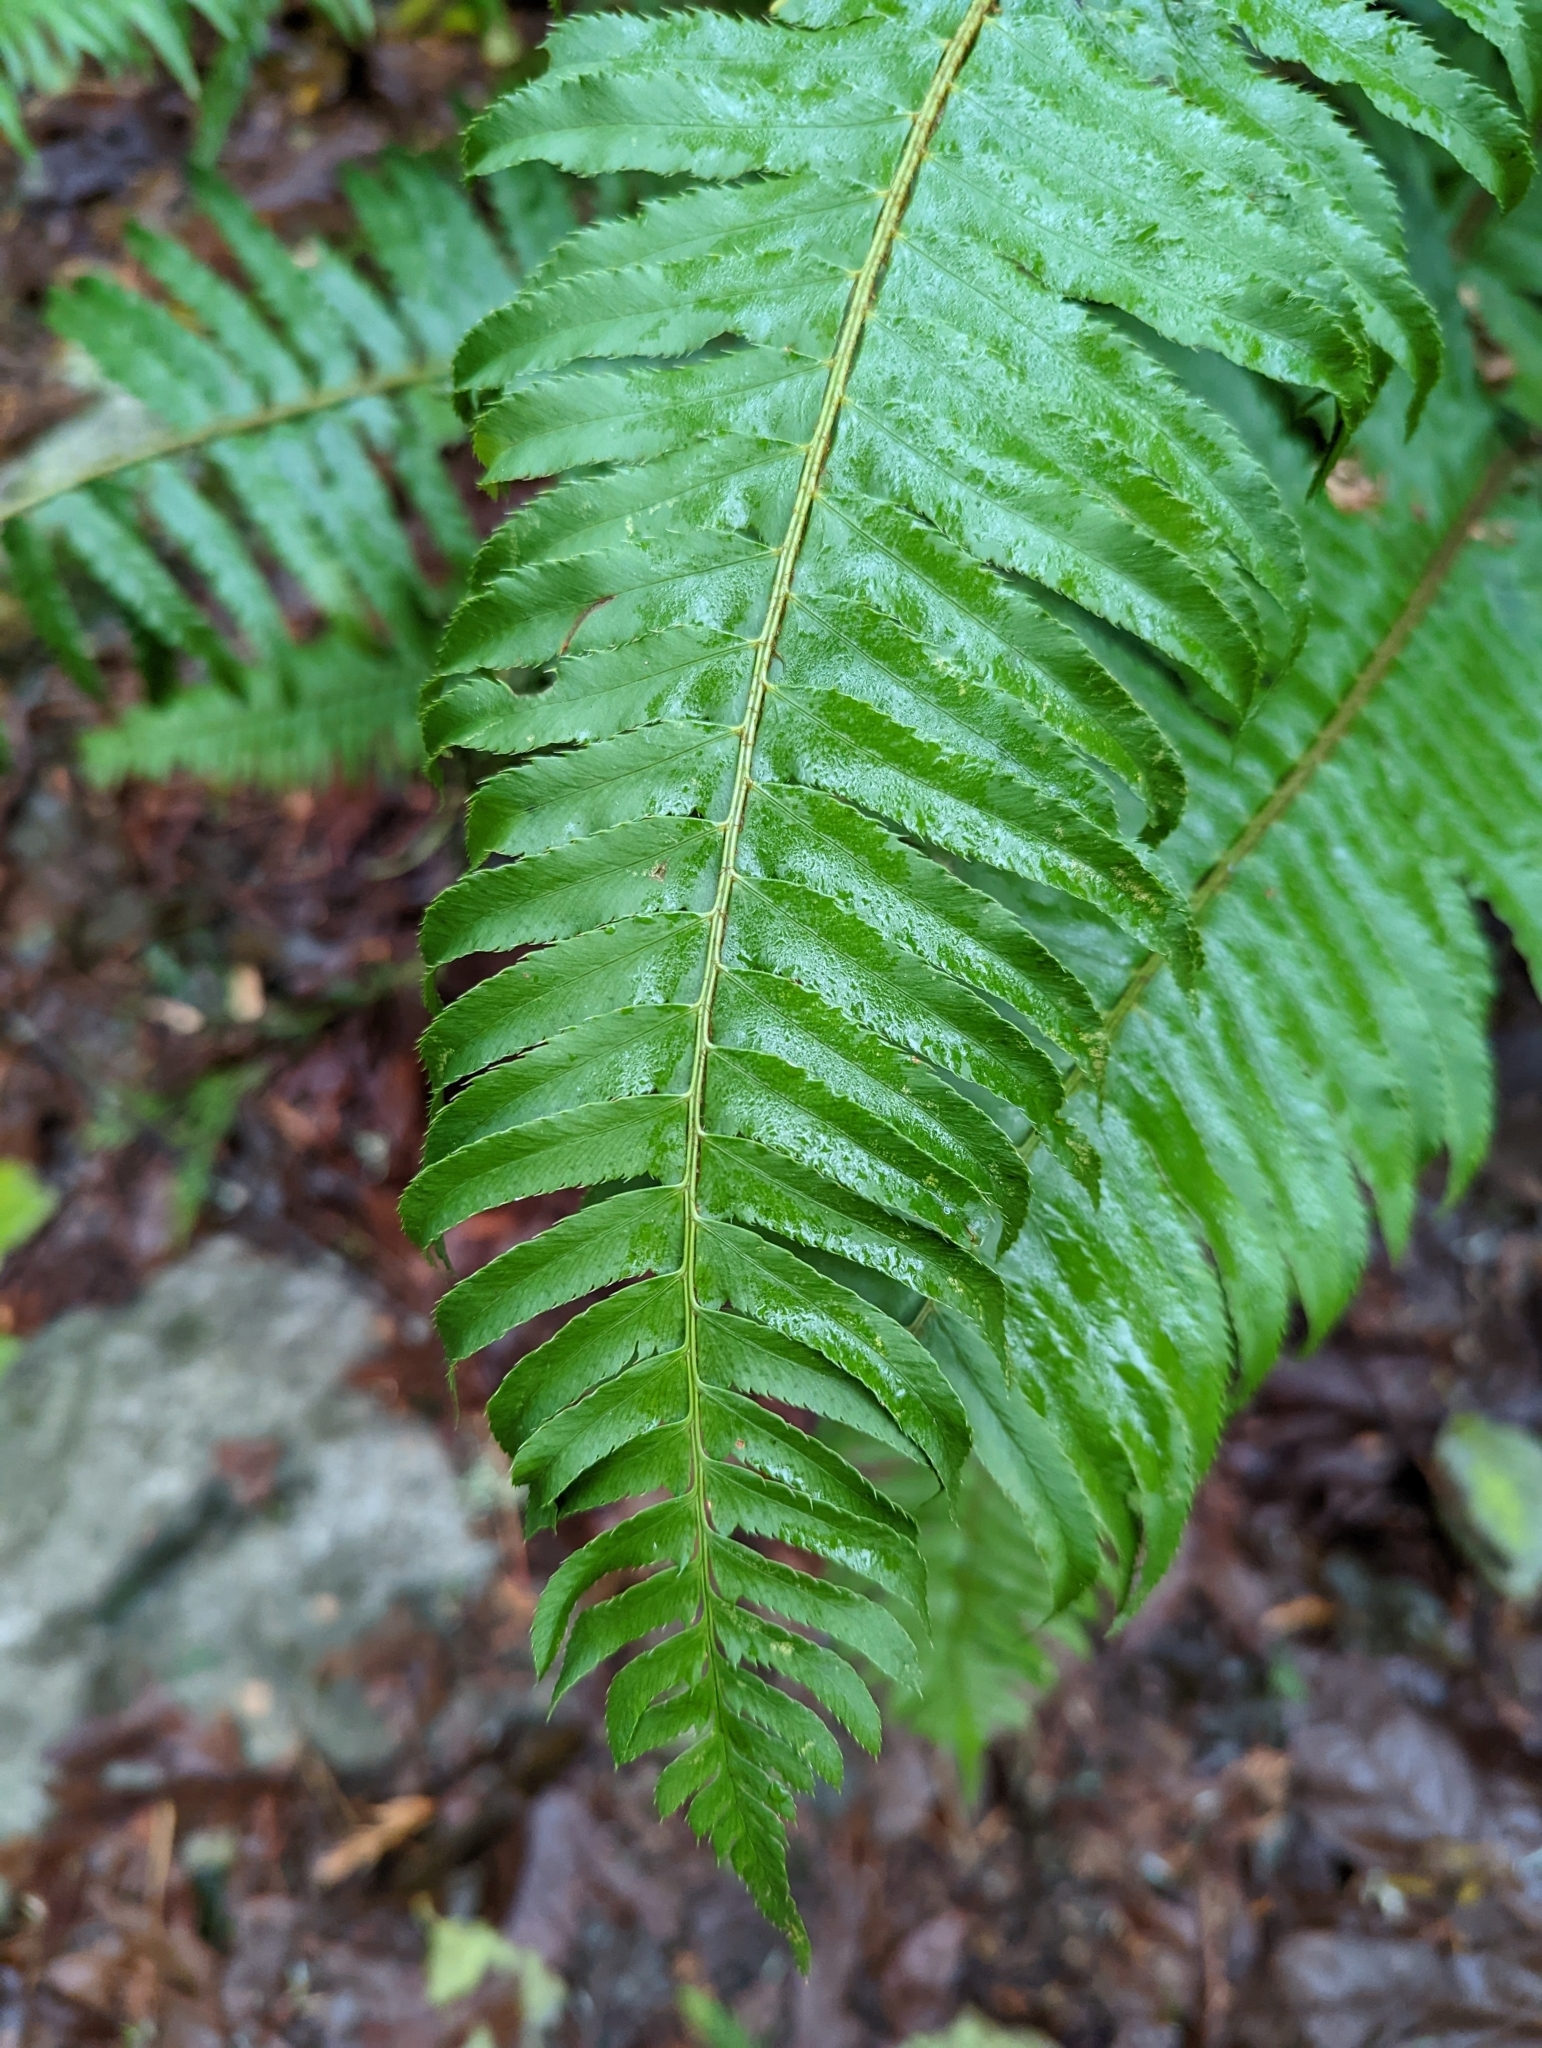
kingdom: Plantae
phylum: Tracheophyta
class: Polypodiopsida
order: Polypodiales
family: Dryopteridaceae
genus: Polystichum
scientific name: Polystichum munitum
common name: Western sword-fern
